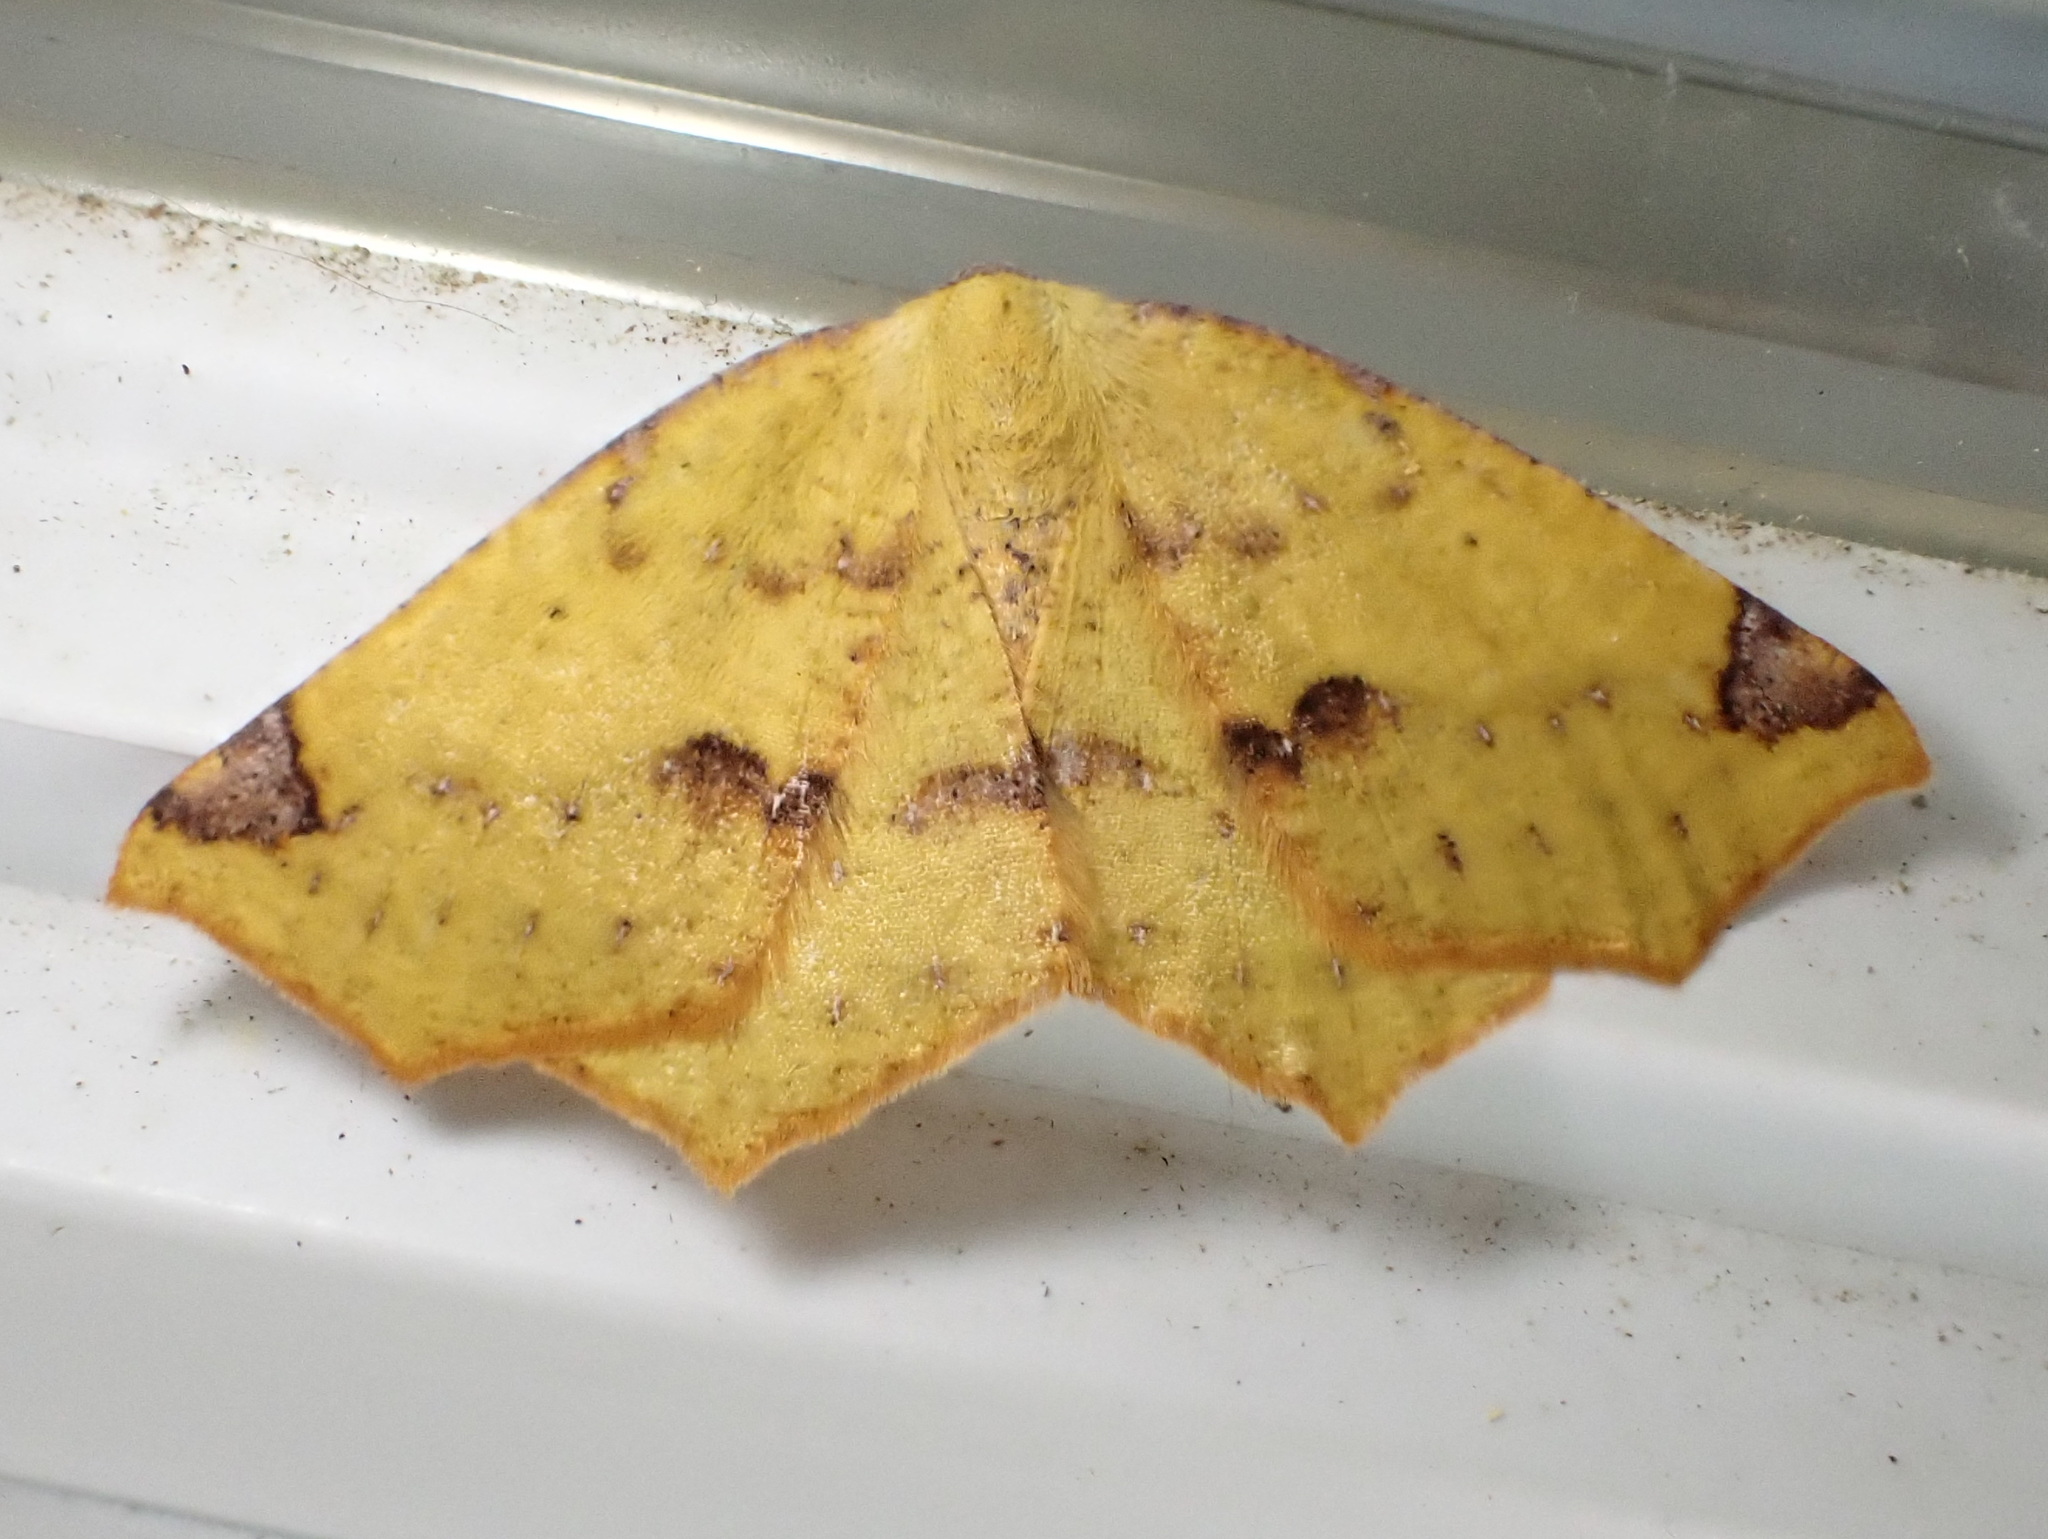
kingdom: Animalia
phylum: Arthropoda
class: Insecta
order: Lepidoptera
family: Geometridae
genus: Antepione
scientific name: Antepione thisoaria
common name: Variable antipione
